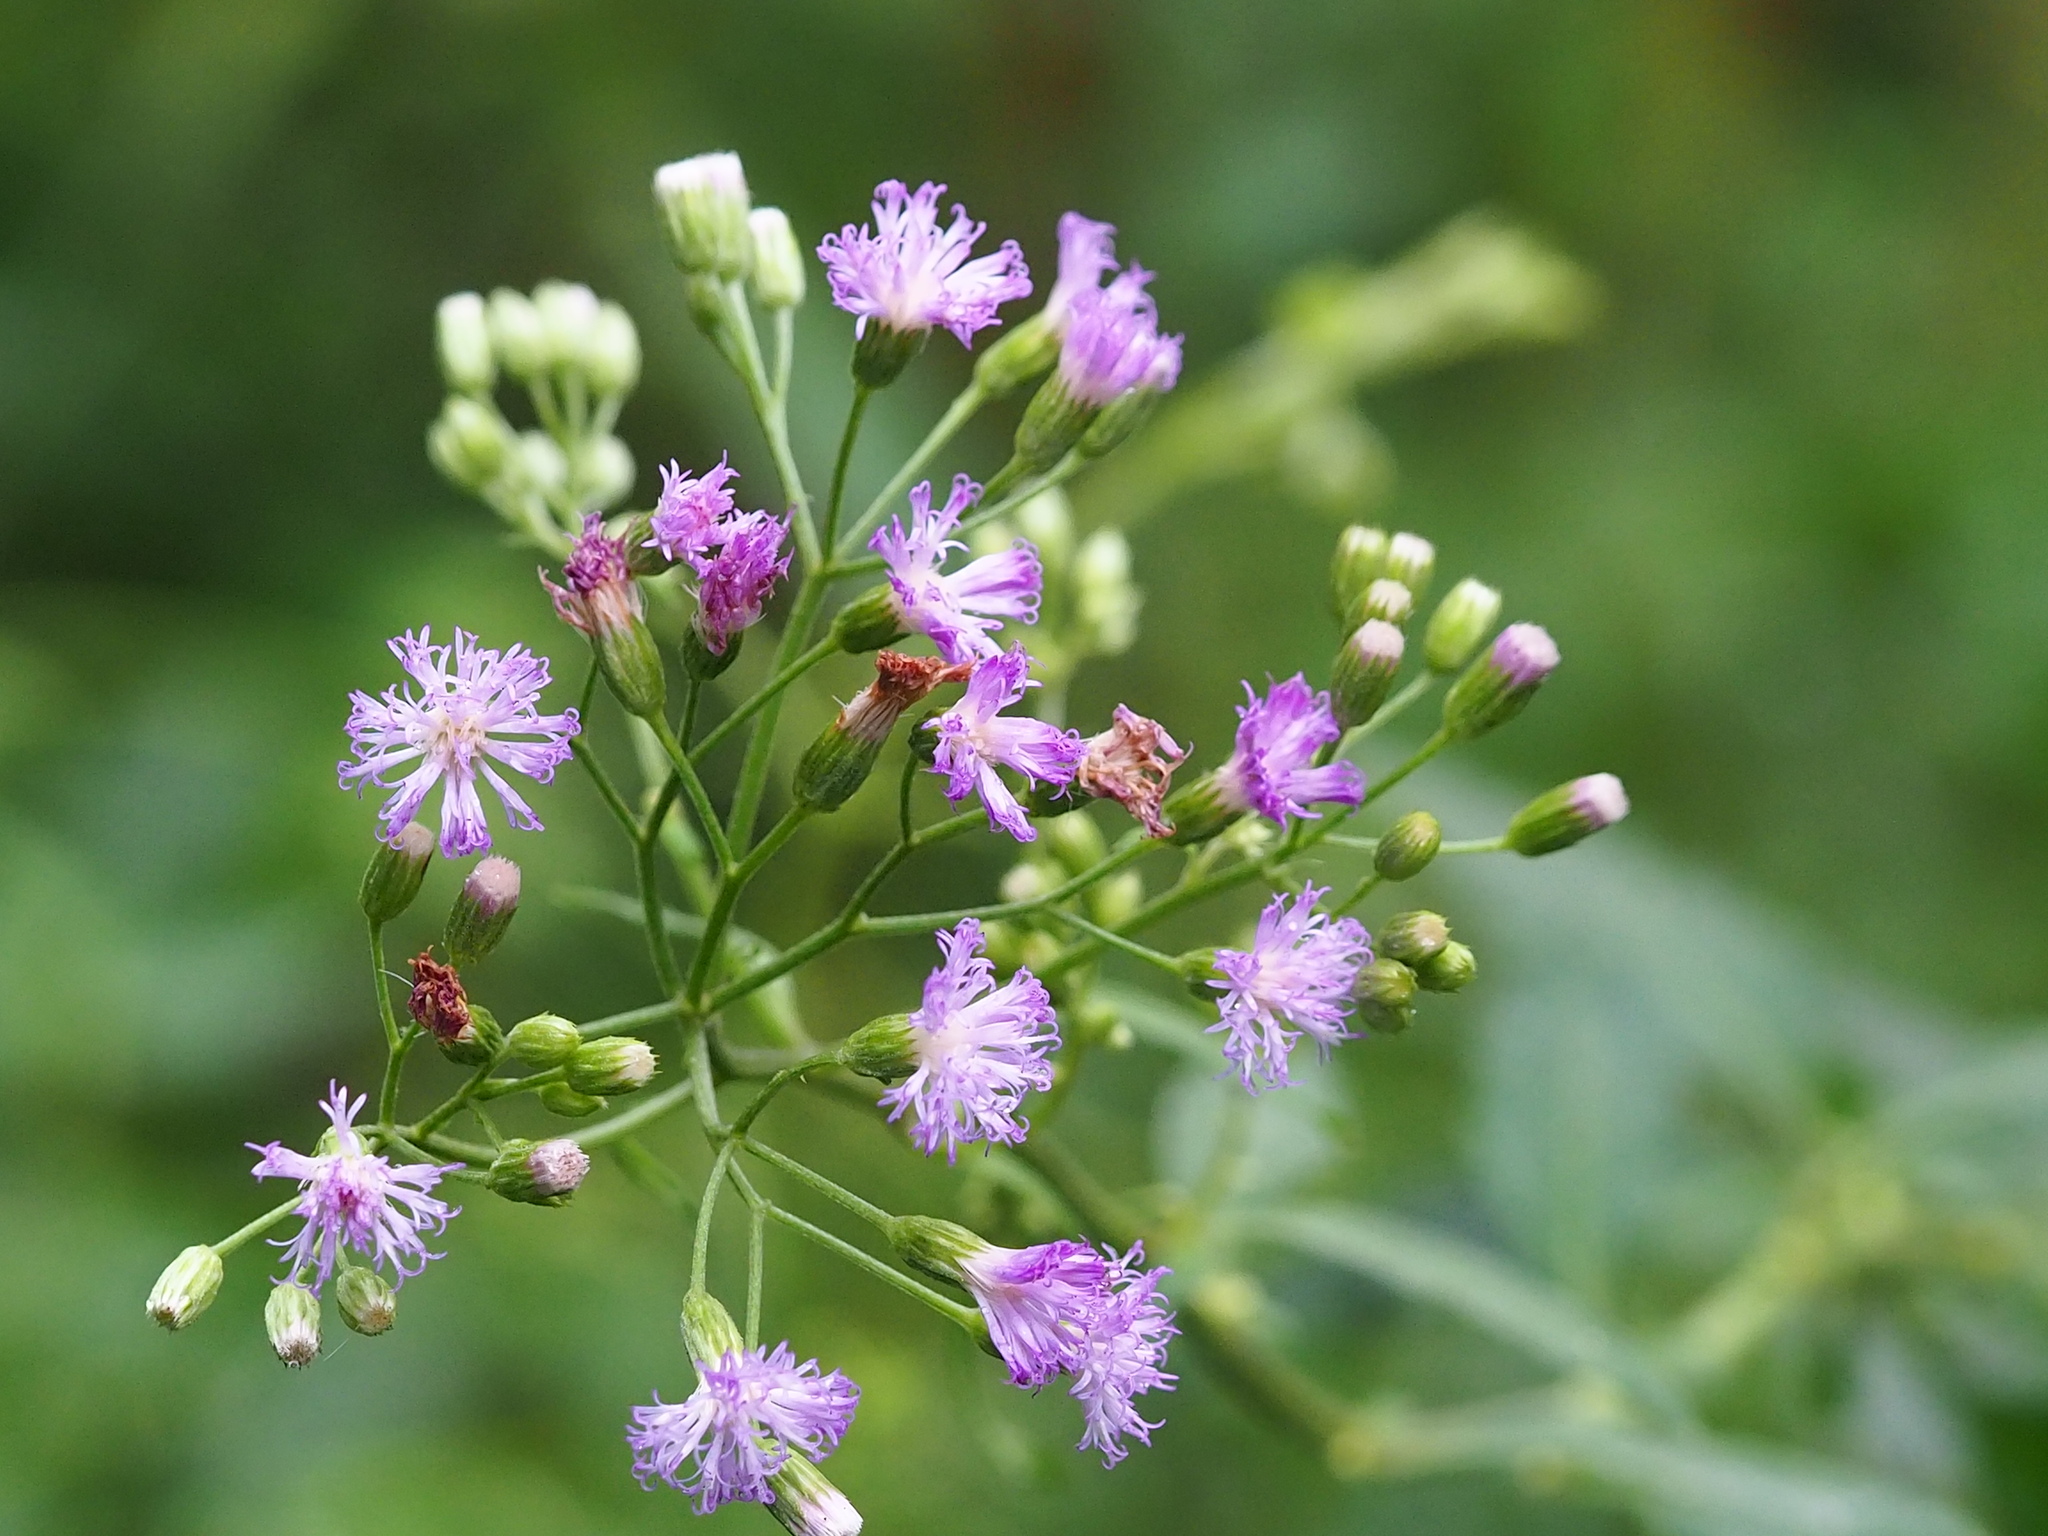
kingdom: Plantae
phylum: Tracheophyta
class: Magnoliopsida
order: Asterales
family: Asteraceae
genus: Cyanthillium
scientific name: Cyanthillium cinereum
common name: Little ironweed
